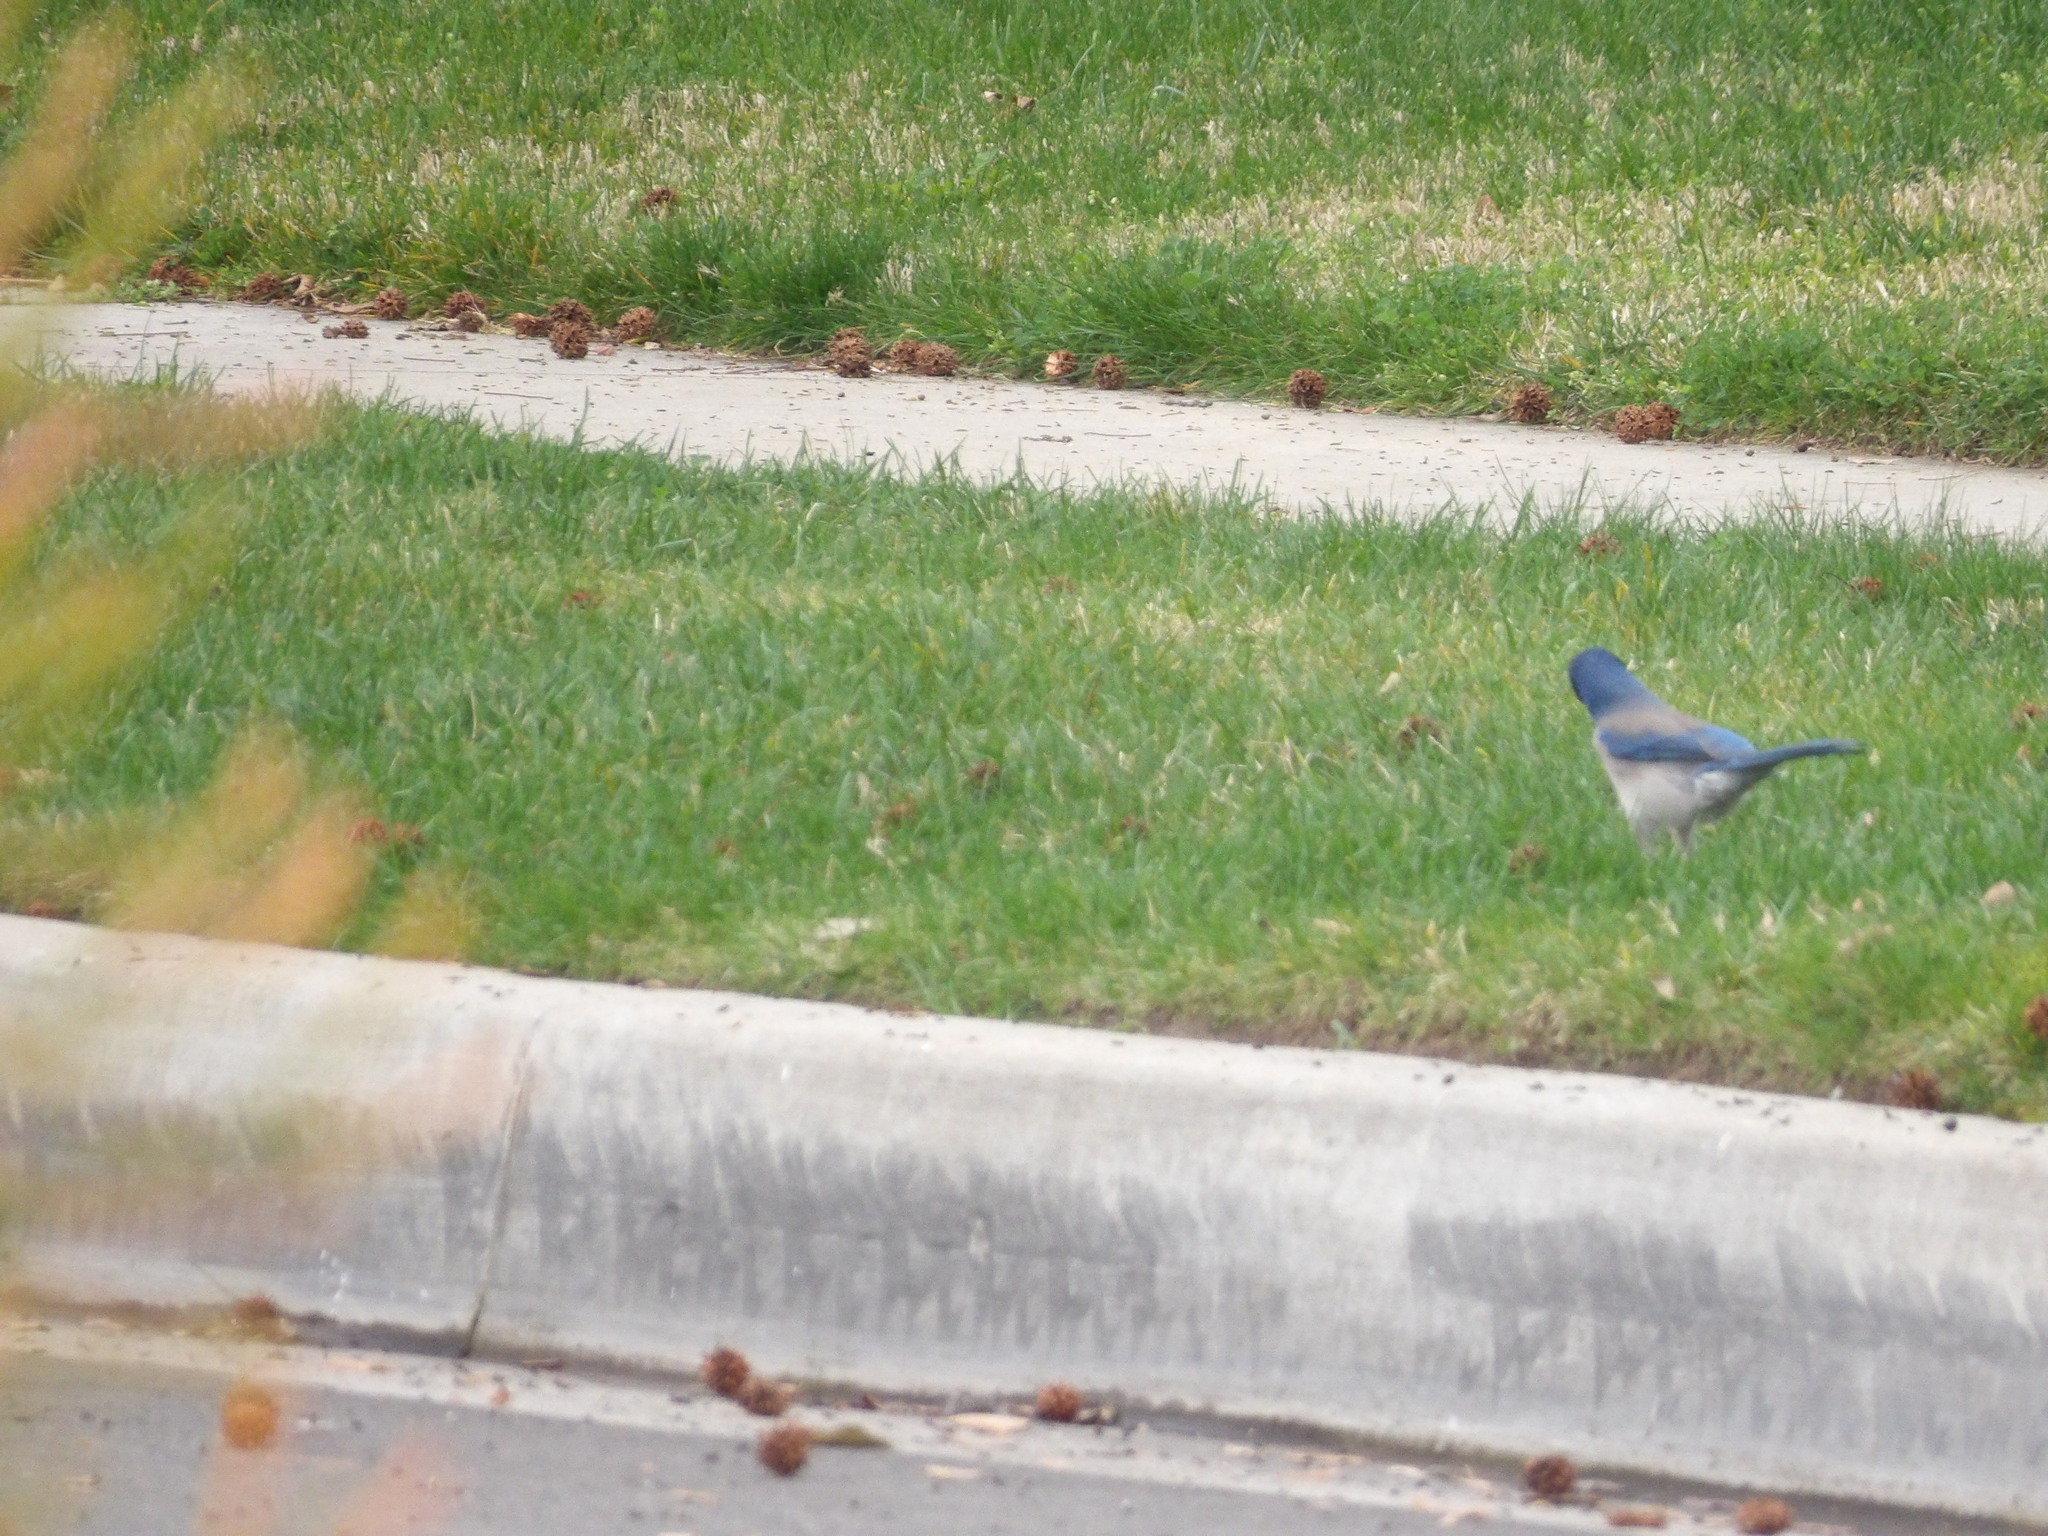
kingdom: Animalia
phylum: Chordata
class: Aves
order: Passeriformes
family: Corvidae
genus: Aphelocoma
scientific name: Aphelocoma californica
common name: California scrub-jay
